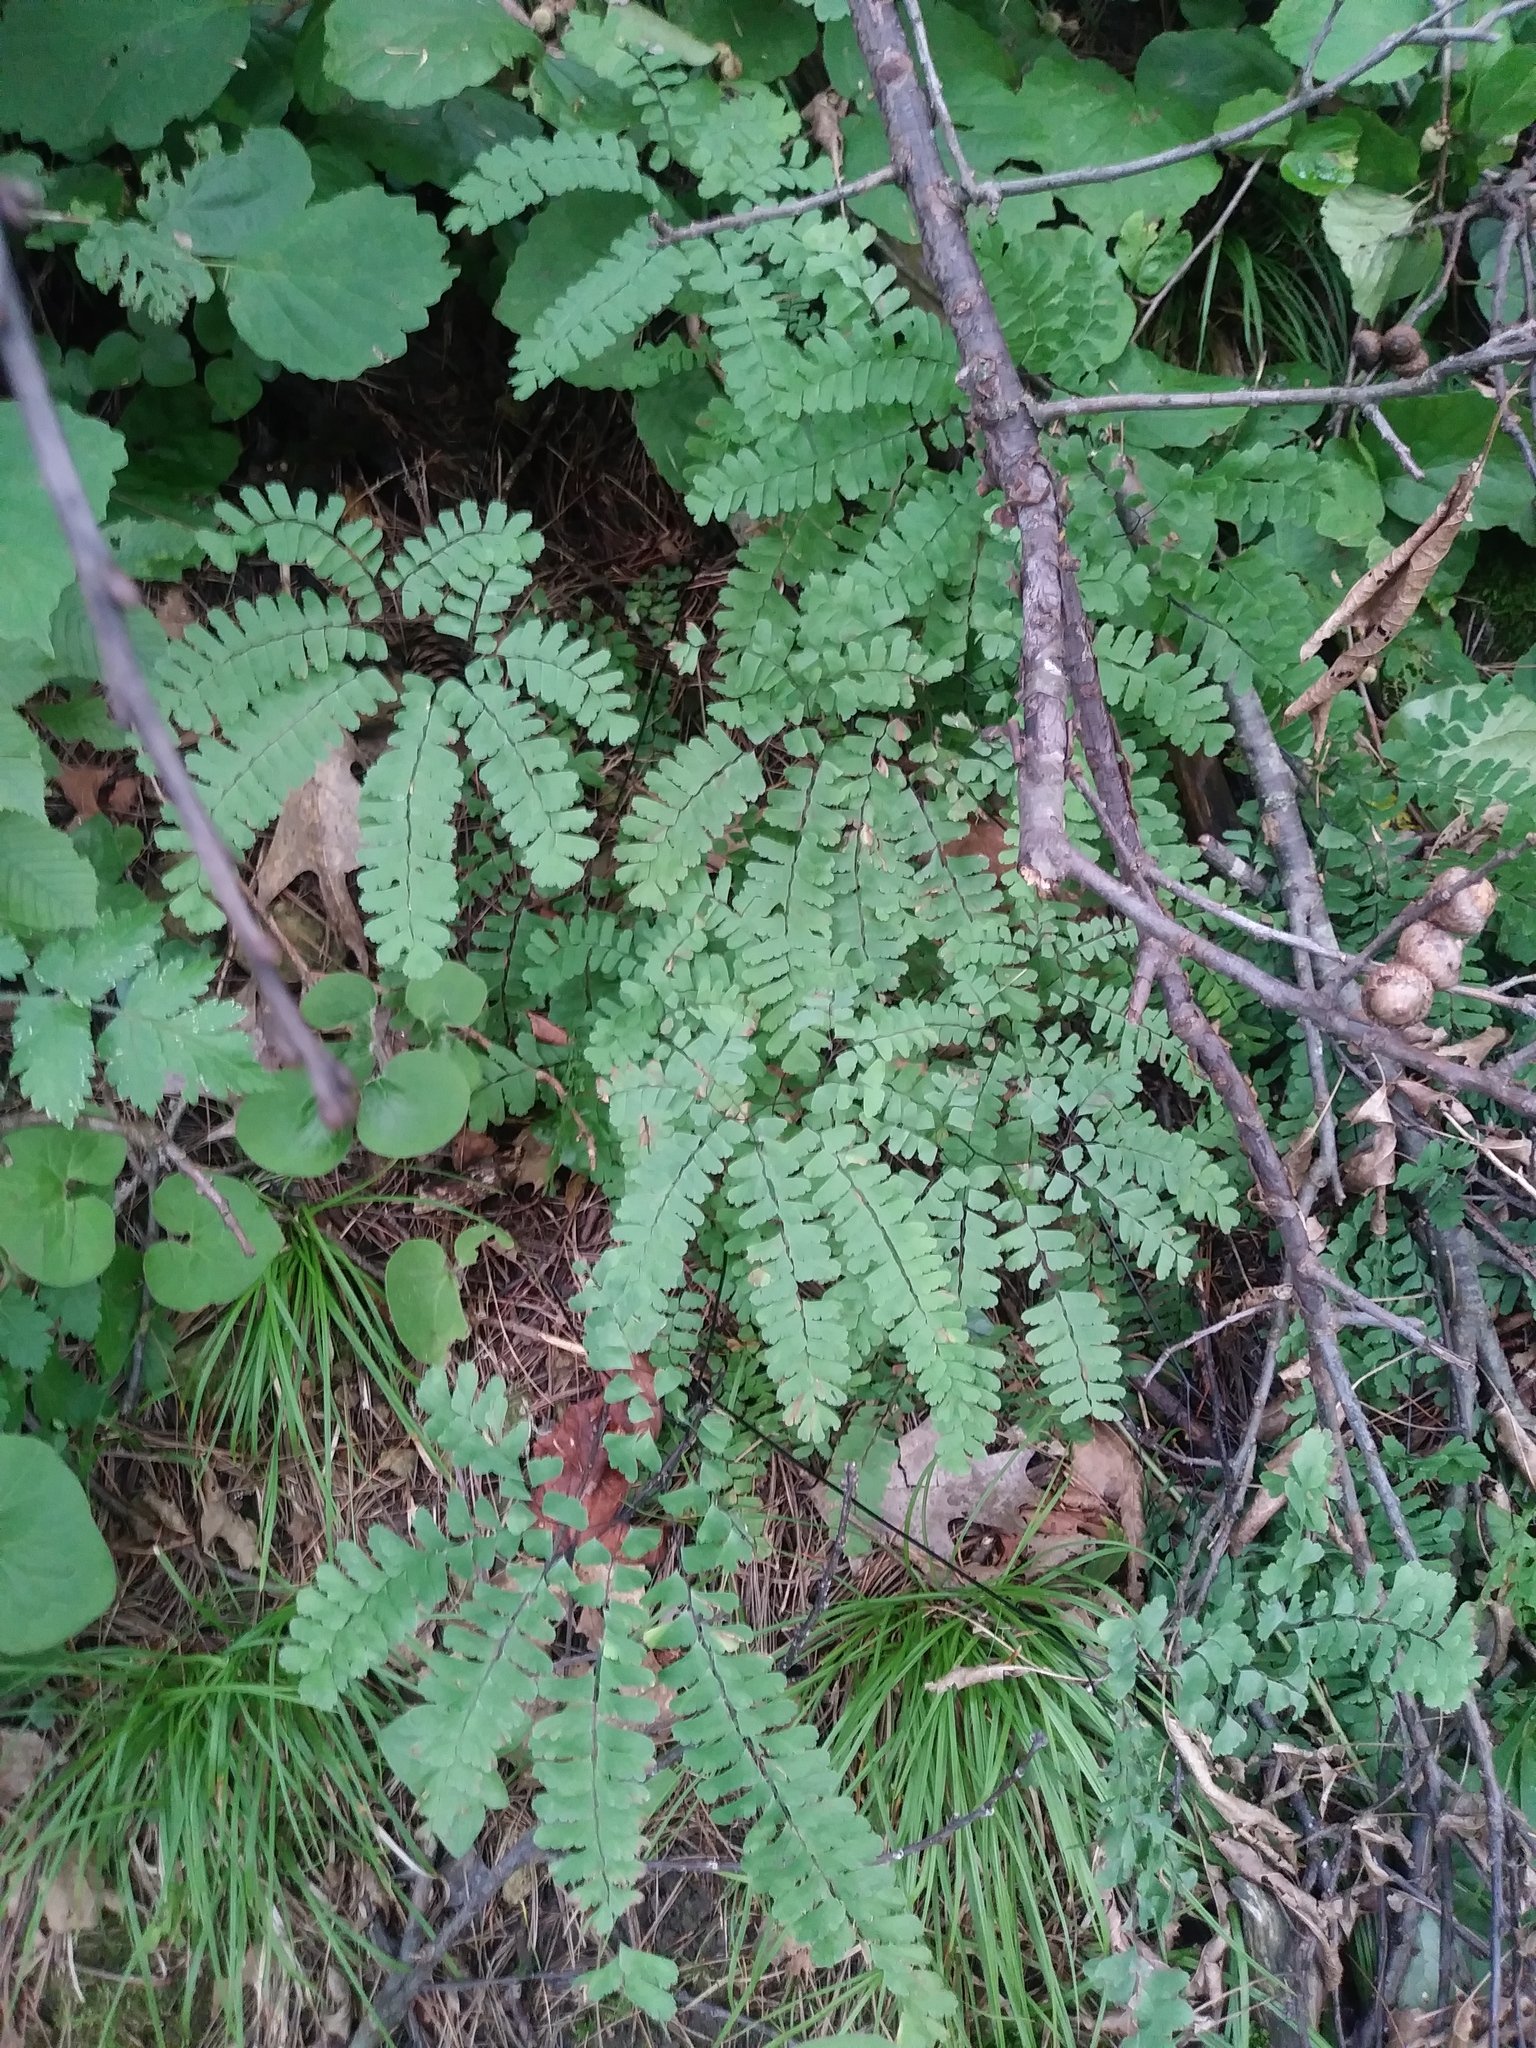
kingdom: Plantae
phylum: Tracheophyta
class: Polypodiopsida
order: Polypodiales
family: Pteridaceae
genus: Adiantum
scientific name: Adiantum pedatum
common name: Five-finger fern
